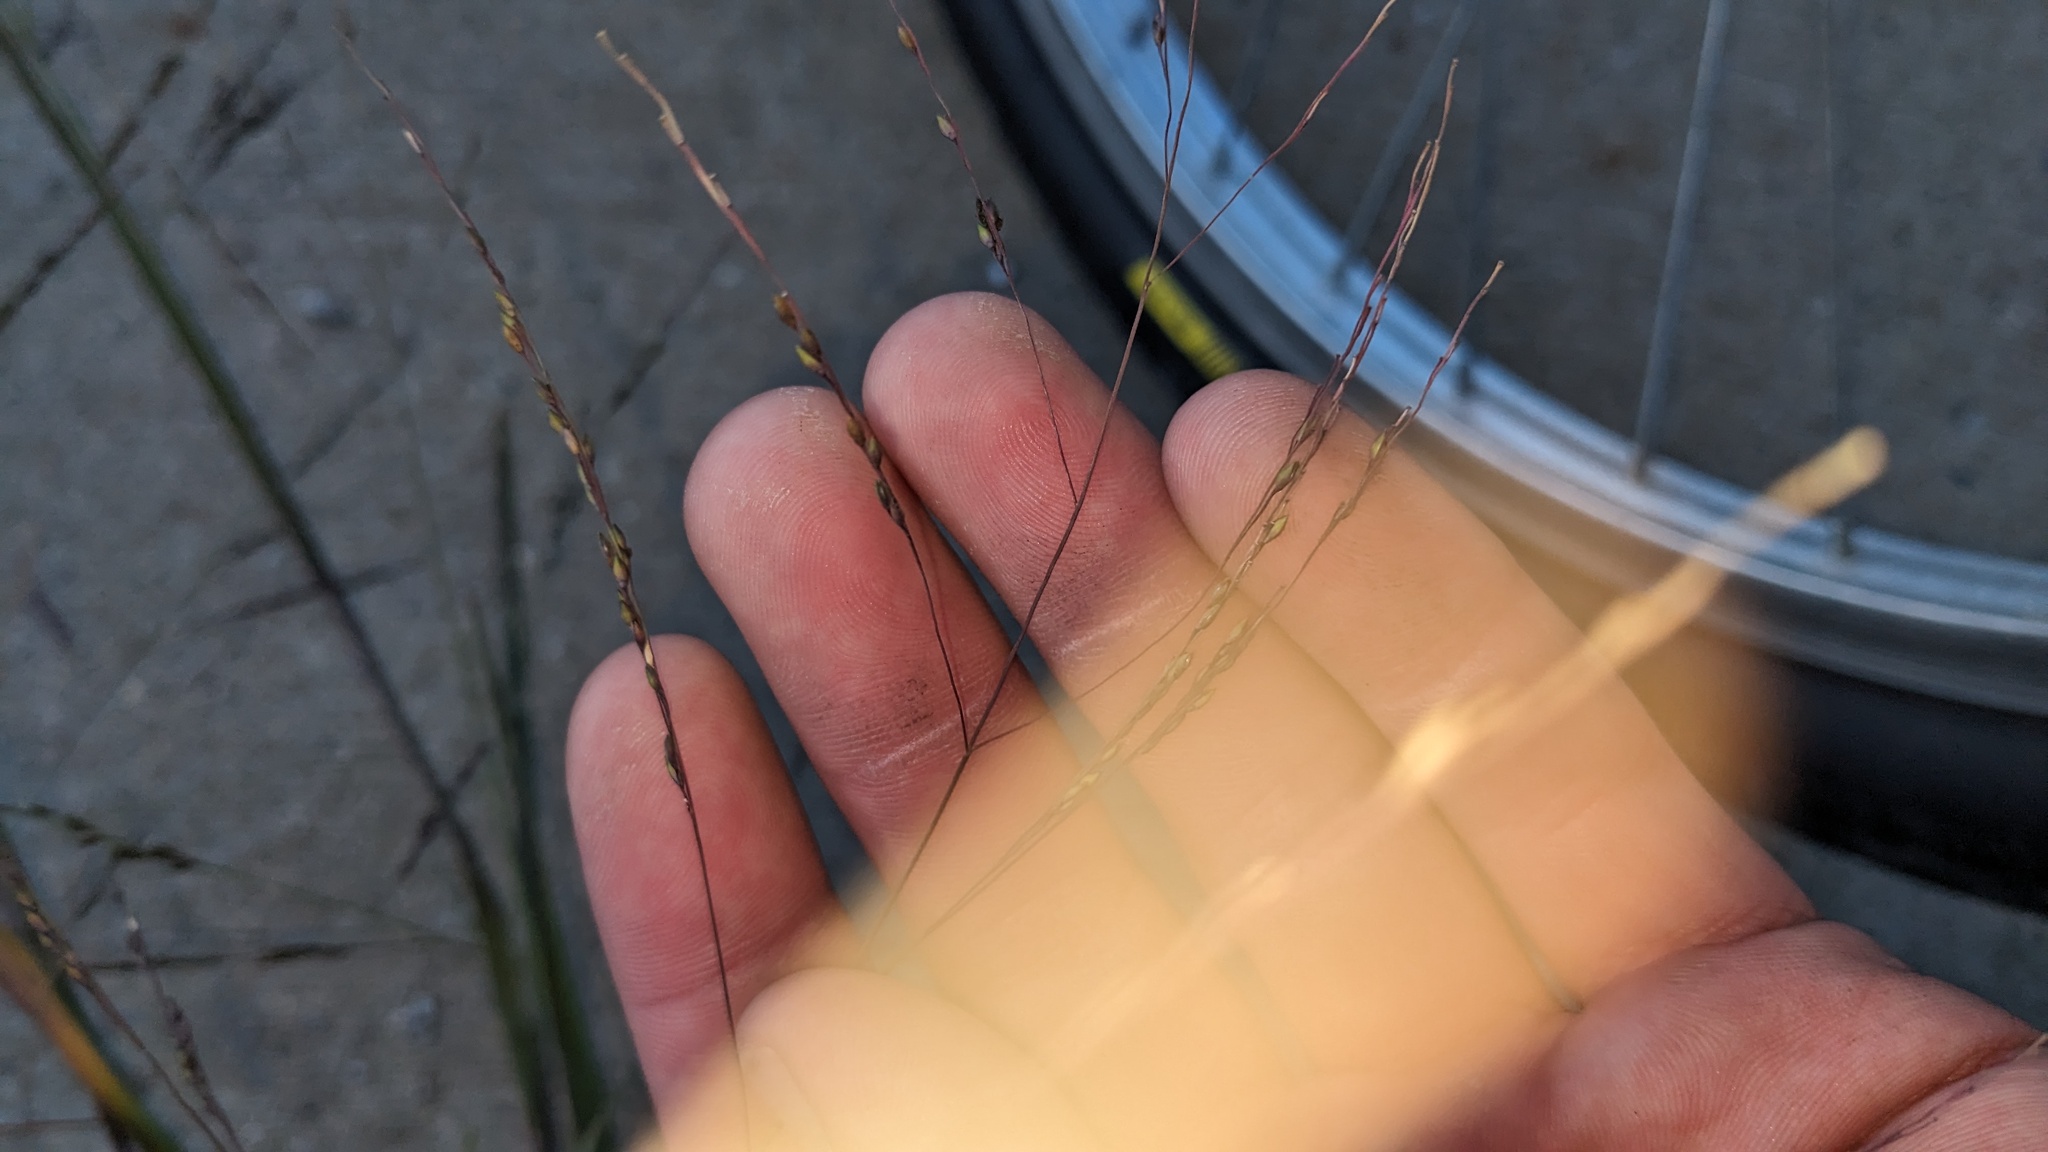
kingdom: Plantae
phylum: Tracheophyta
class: Liliopsida
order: Poales
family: Poaceae
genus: Panicum
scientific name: Panicum dichotomiflorum
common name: Autumn millet
